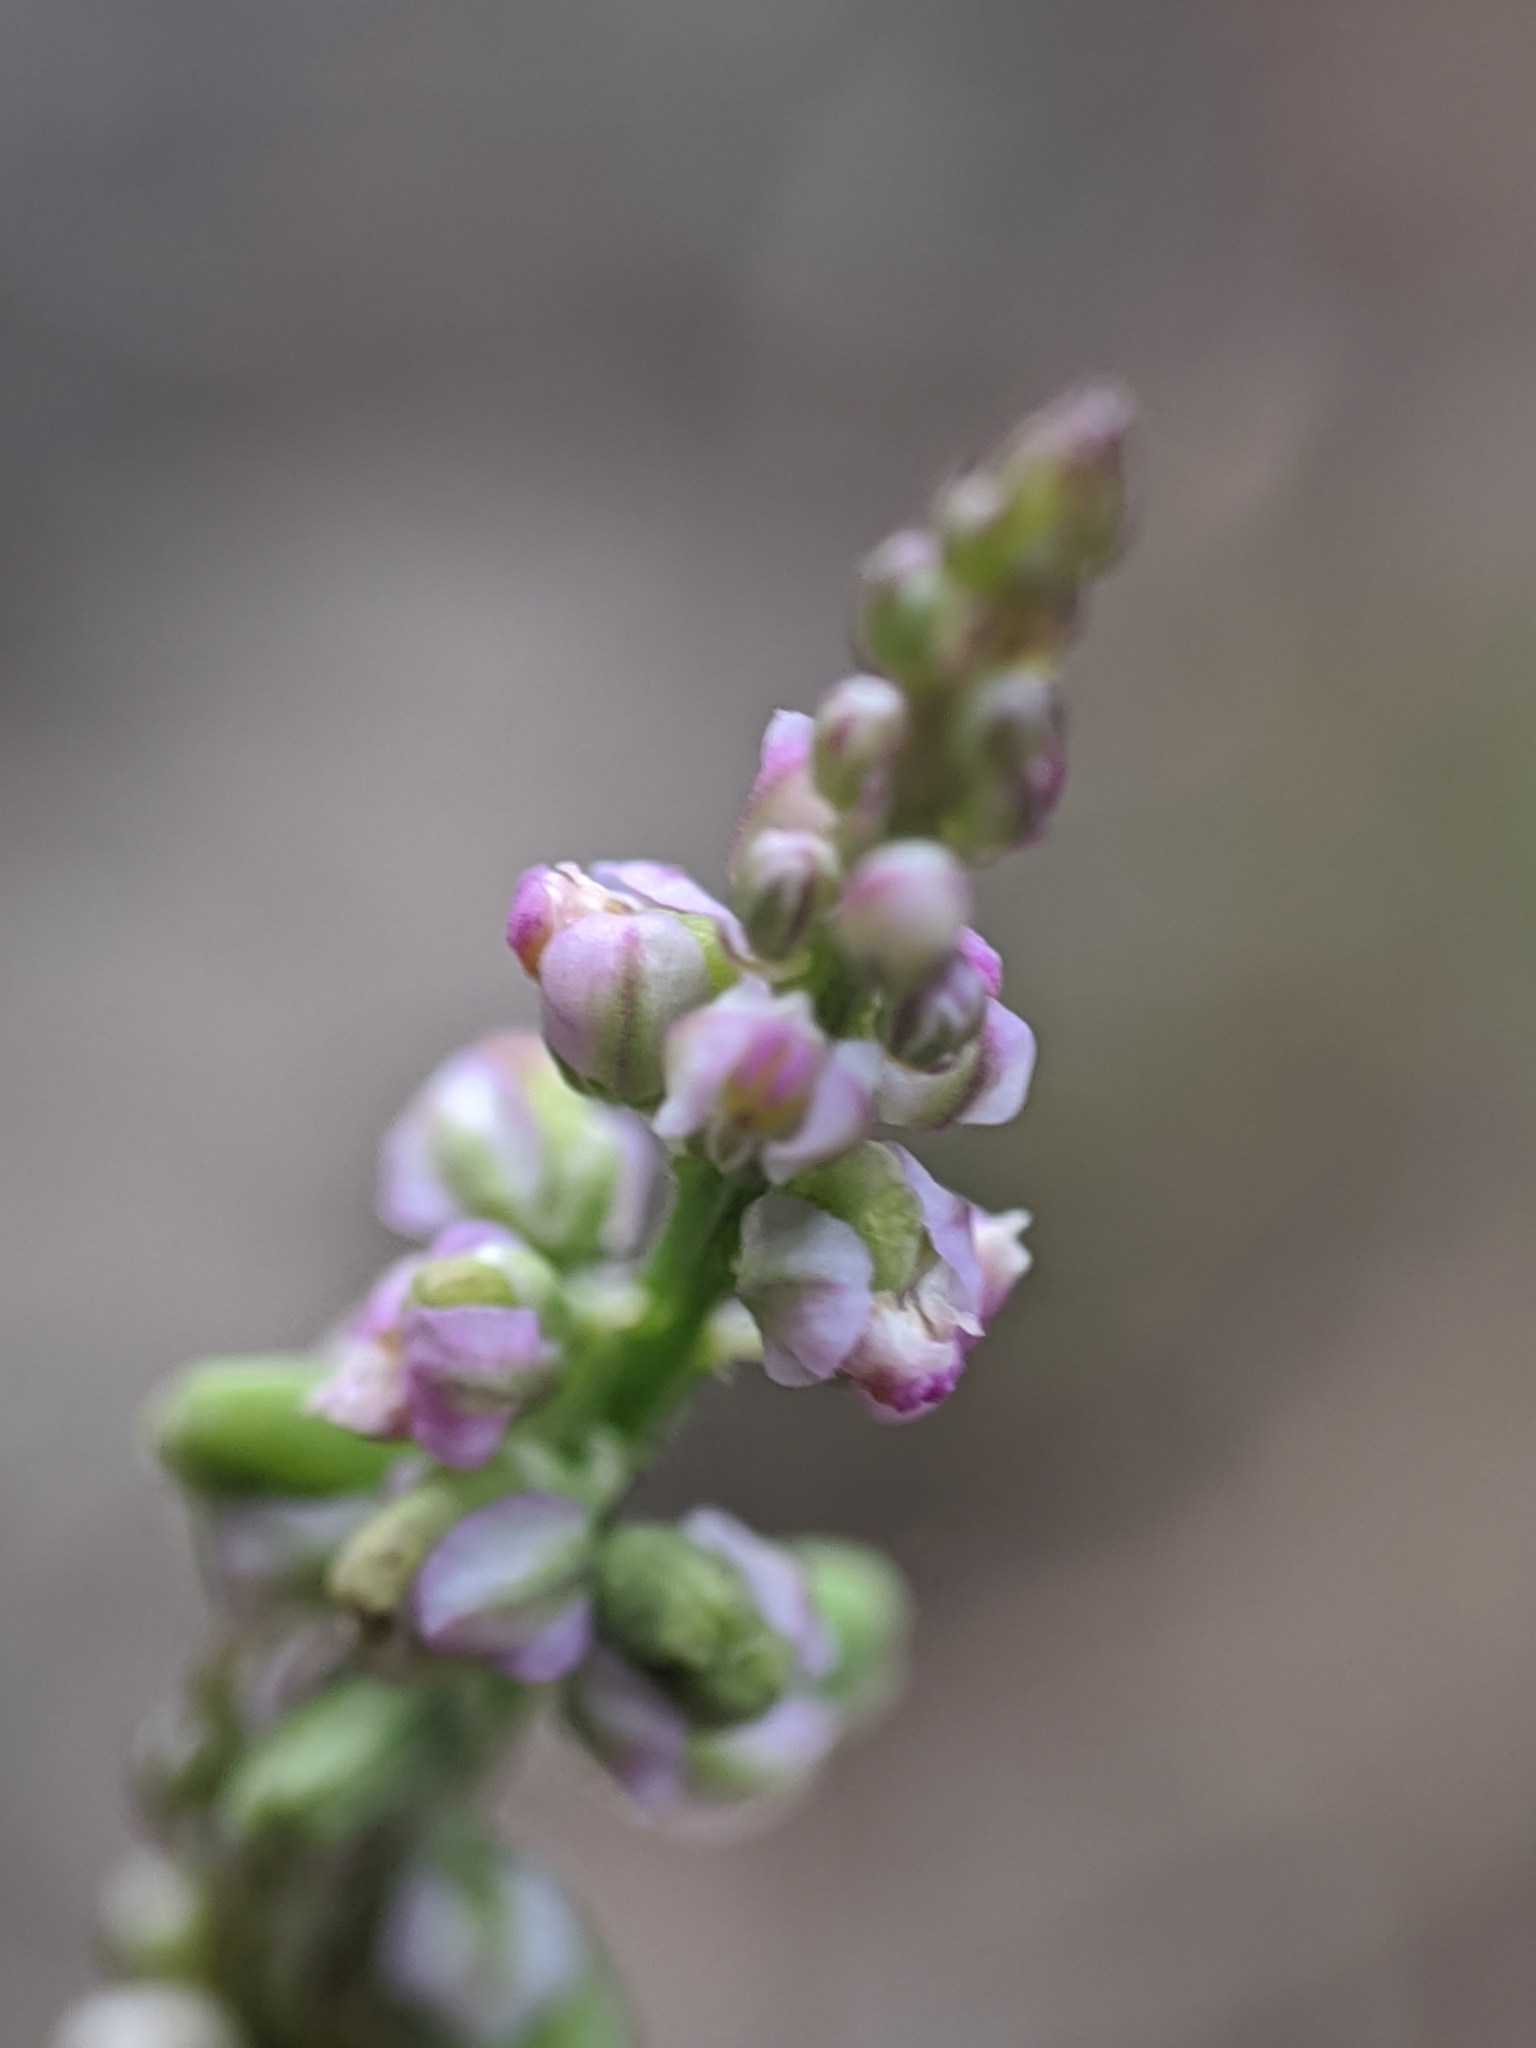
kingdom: Plantae
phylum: Tracheophyta
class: Magnoliopsida
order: Fabales
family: Polygalaceae
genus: Polygala
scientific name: Polygala verticillata
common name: Whorl milkwort
